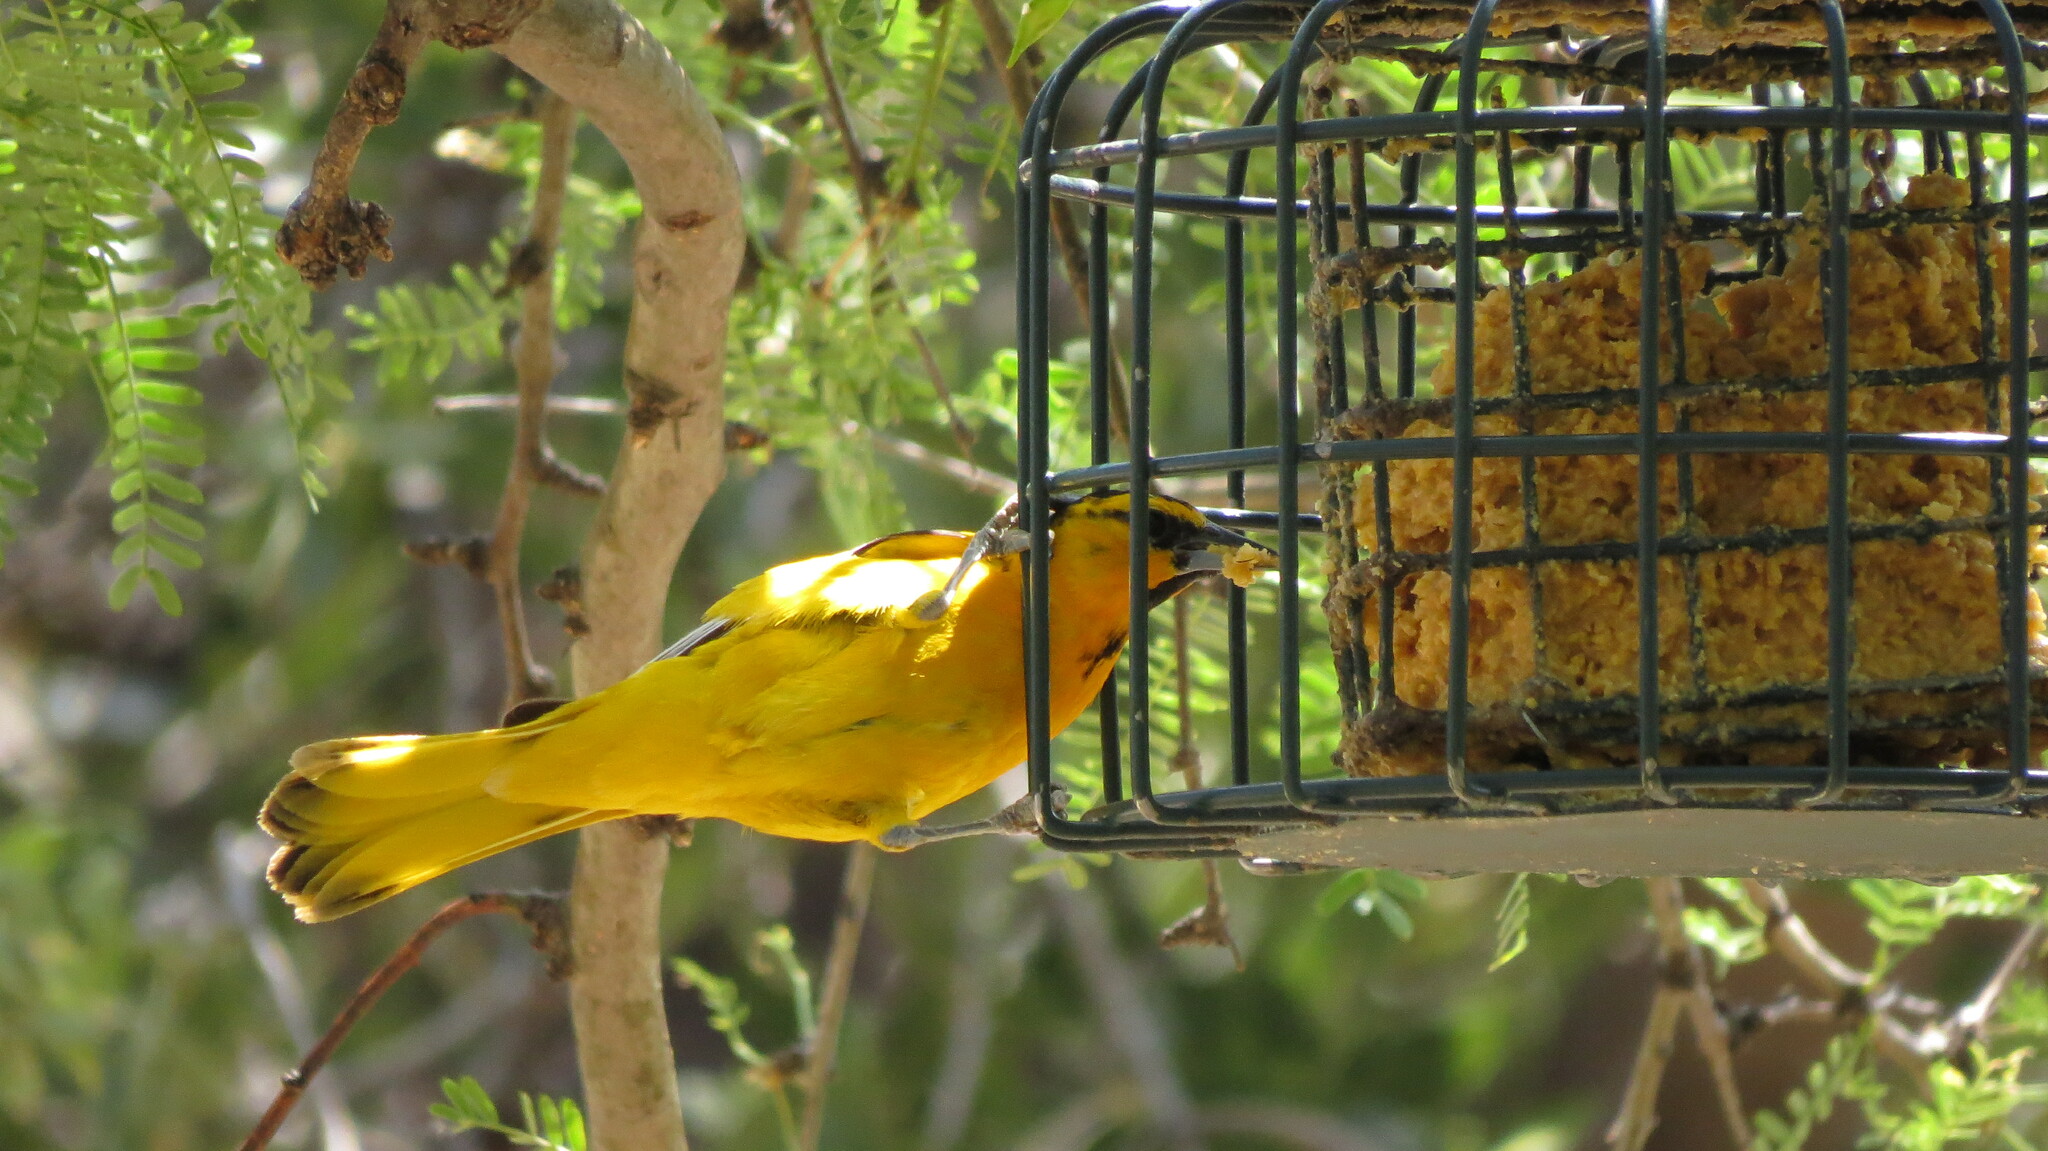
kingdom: Animalia
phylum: Chordata
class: Aves
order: Passeriformes
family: Icteridae
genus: Icterus
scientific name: Icterus bullockii
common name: Bullock's oriole
